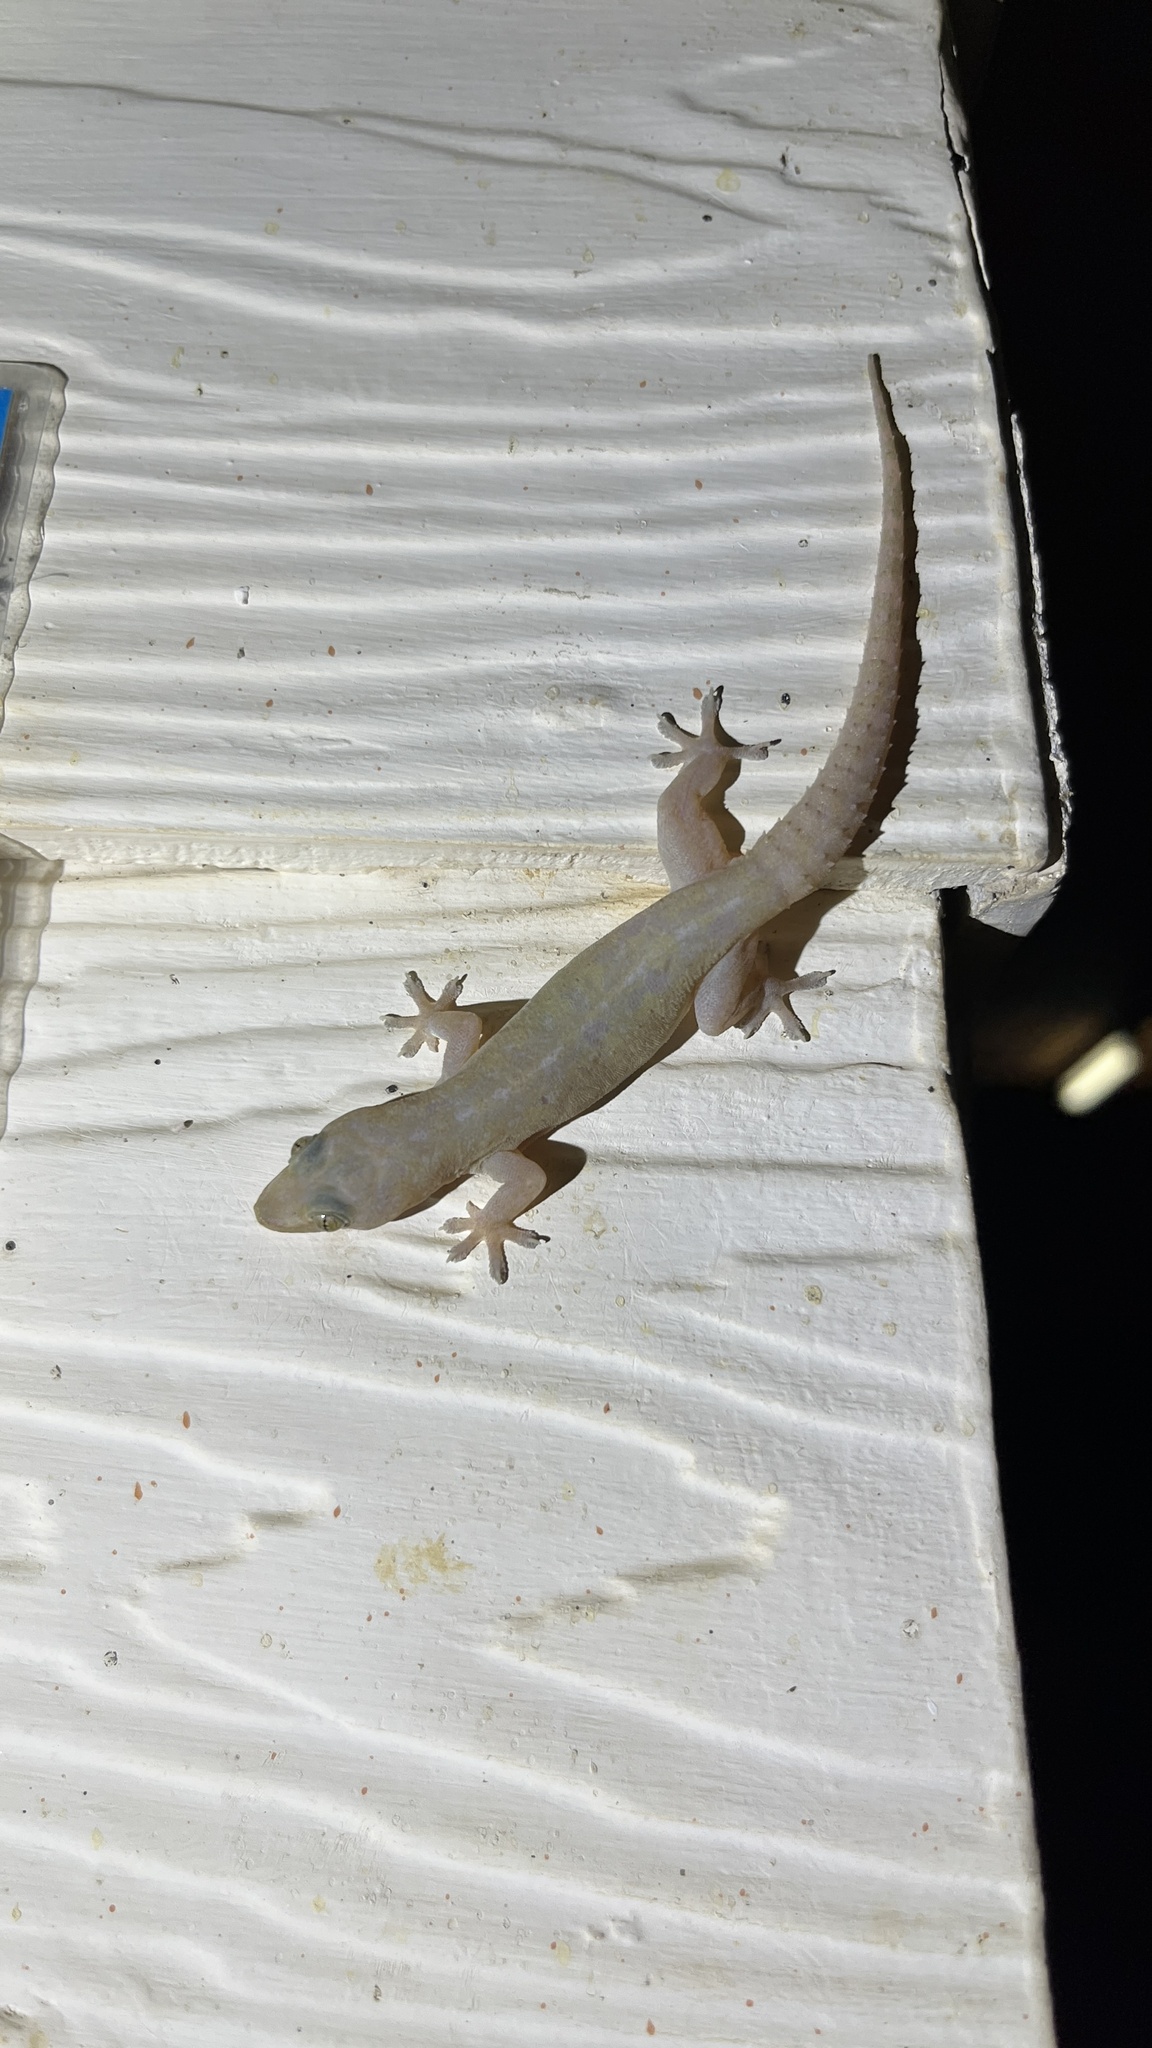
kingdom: Animalia
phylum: Chordata
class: Squamata
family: Gekkonidae
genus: Hemidactylus
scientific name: Hemidactylus frenatus
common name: Common house gecko
